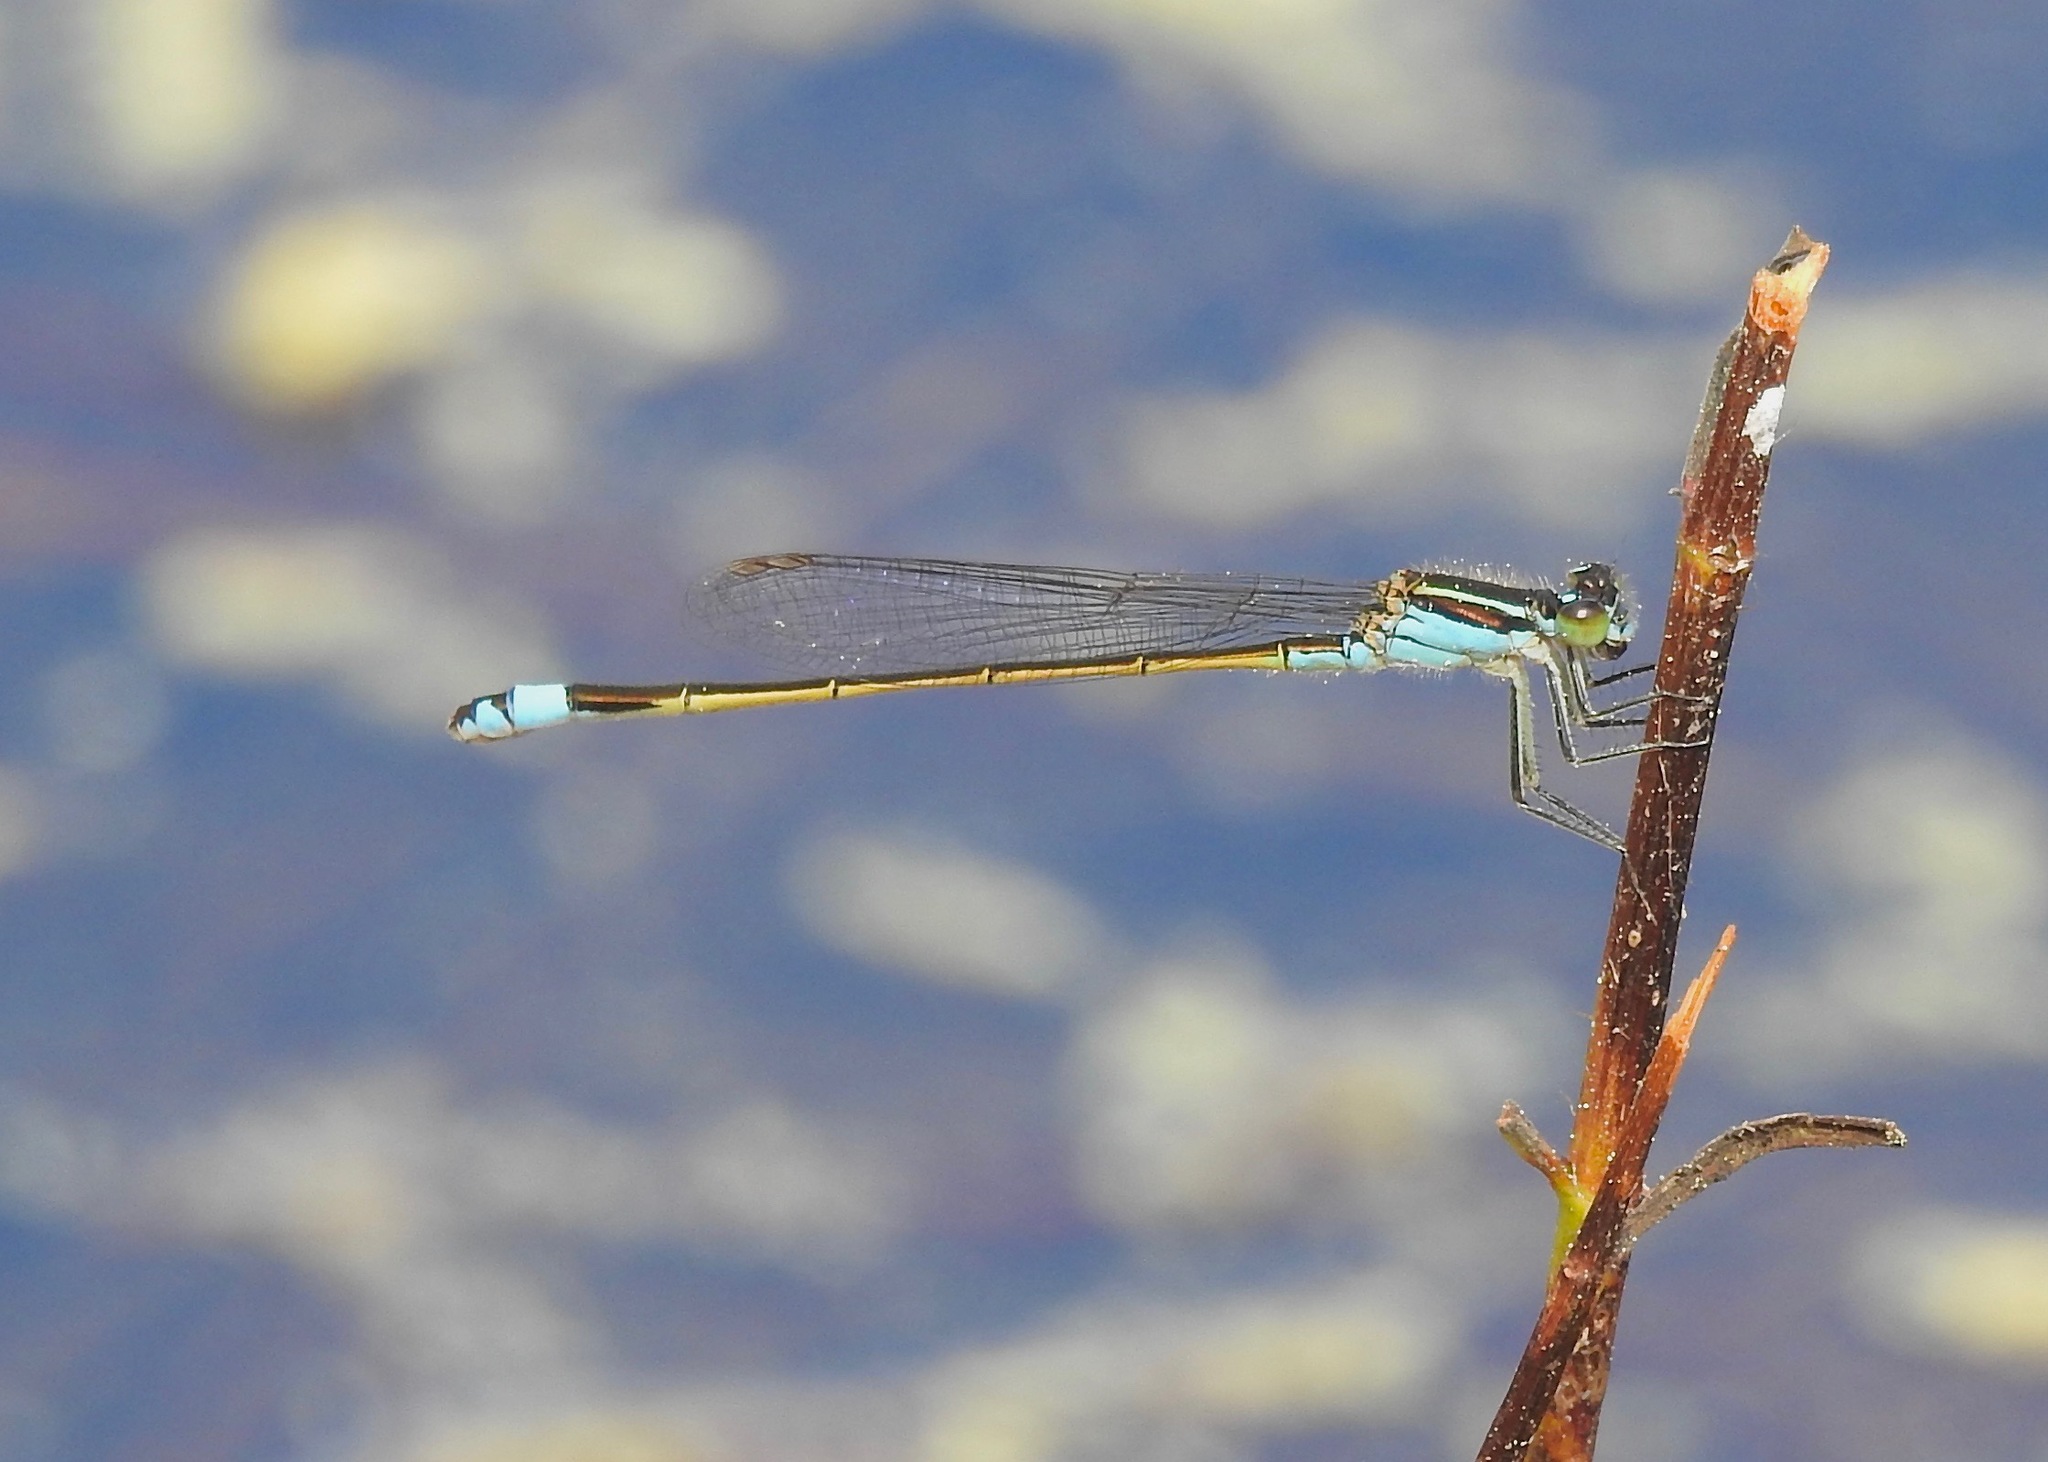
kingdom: Animalia
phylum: Arthropoda
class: Insecta
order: Odonata
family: Coenagrionidae
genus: Ischnura
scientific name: Ischnura ramburii
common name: Rambur's forktail
